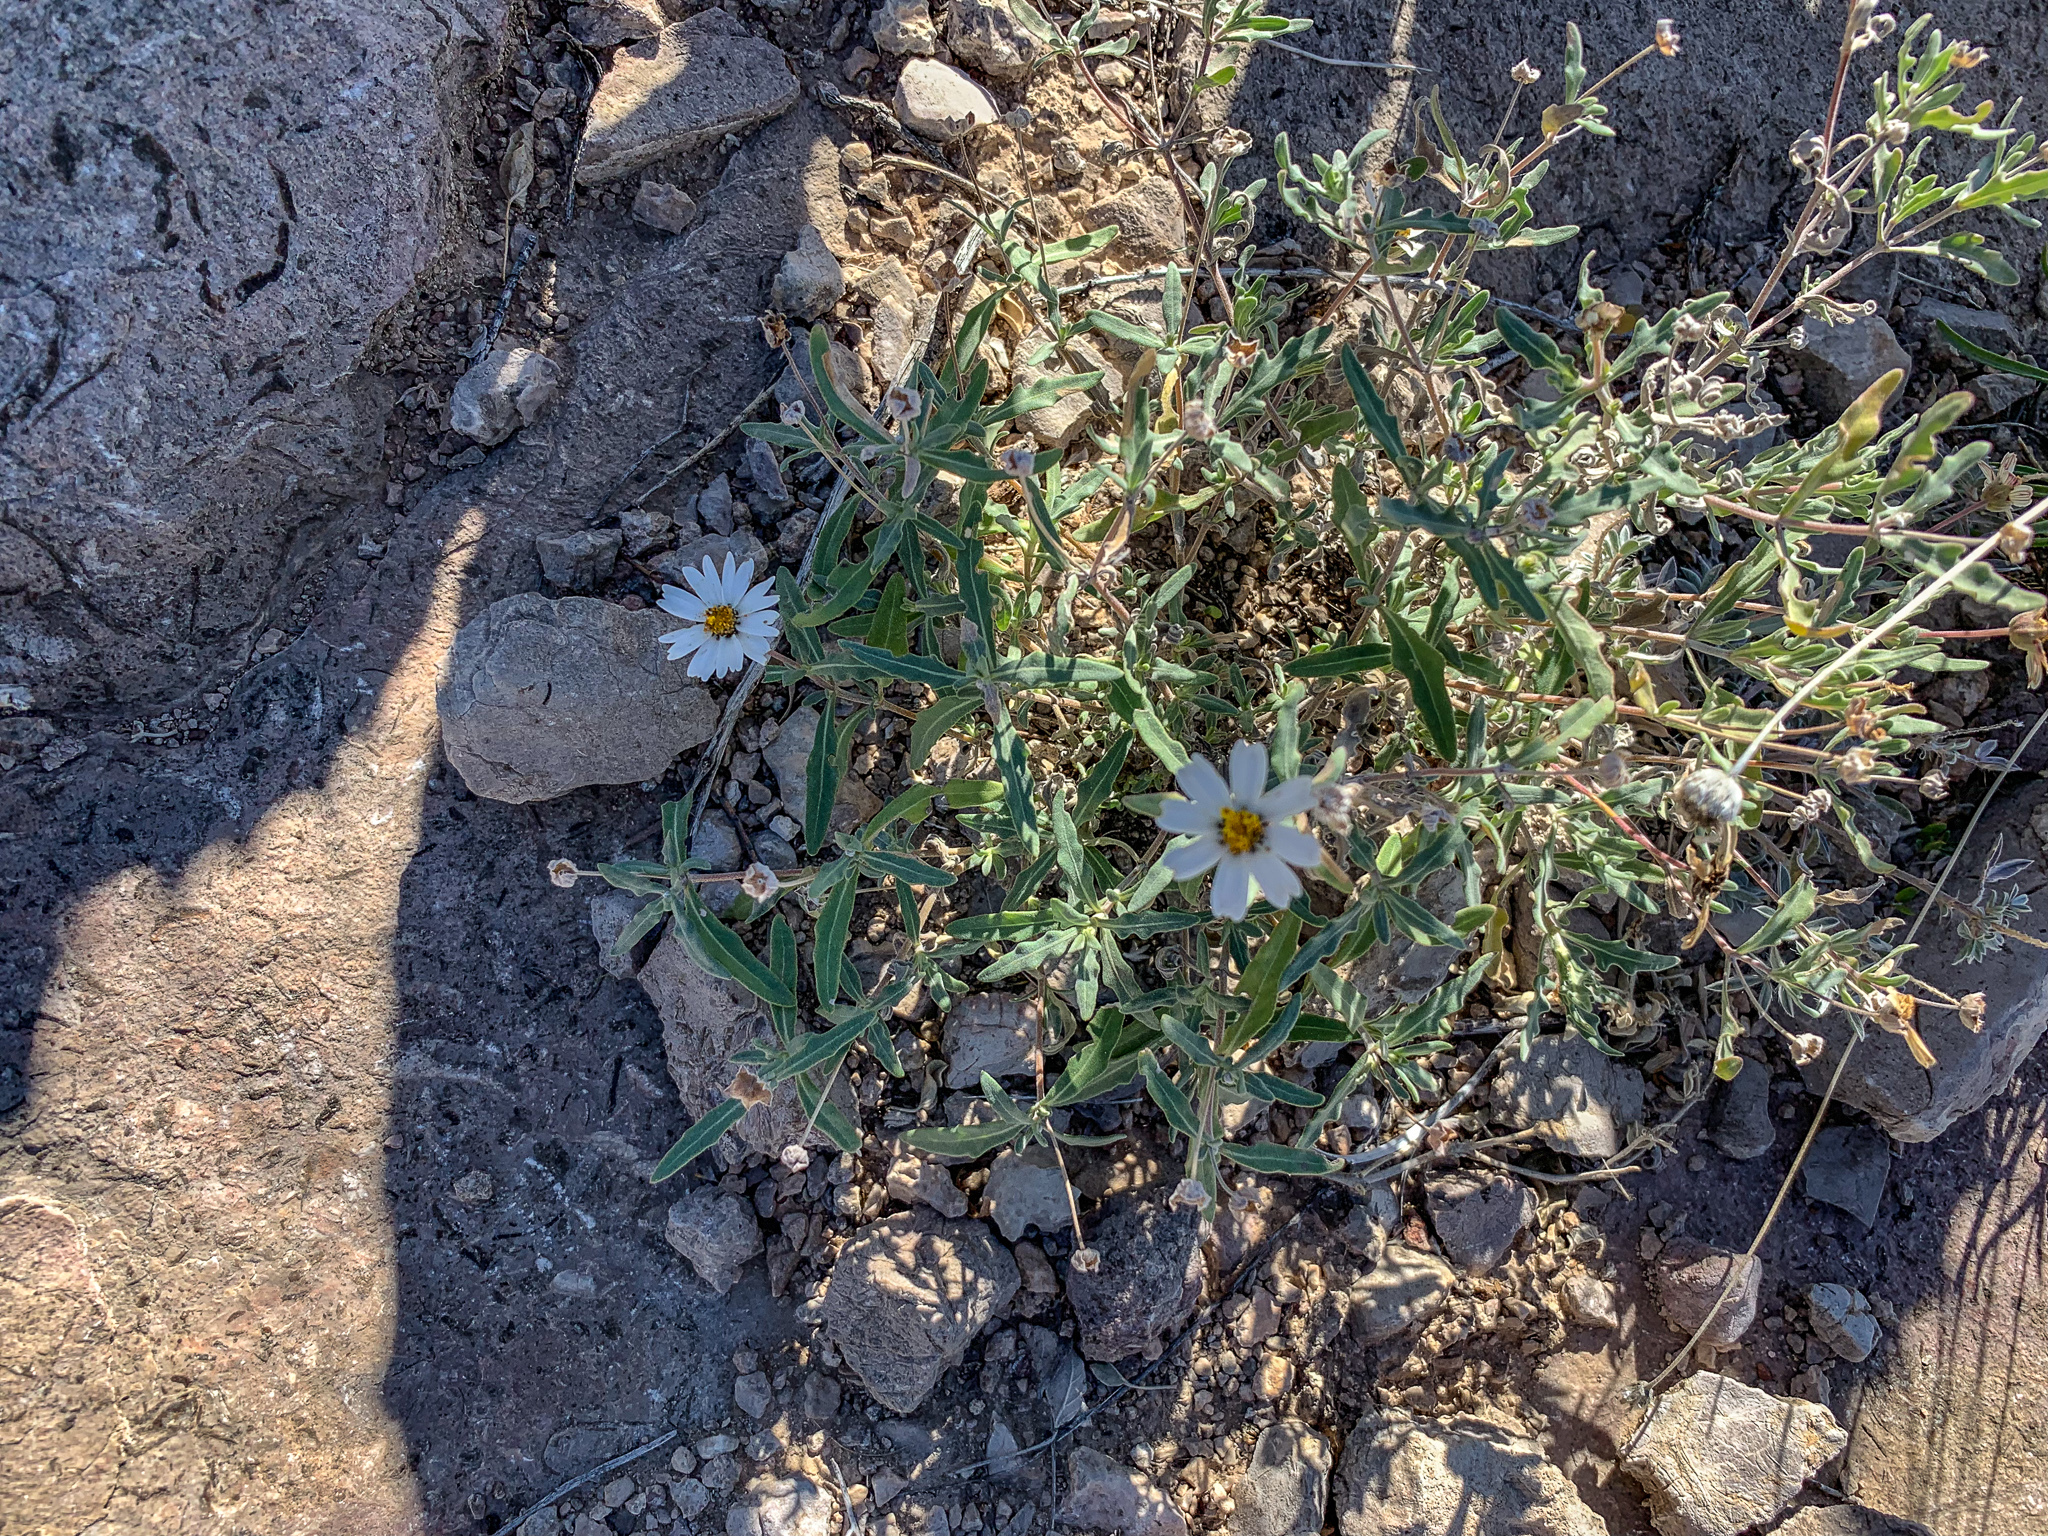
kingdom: Plantae
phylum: Tracheophyta
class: Magnoliopsida
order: Asterales
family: Asteraceae
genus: Melampodium
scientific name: Melampodium leucanthum
